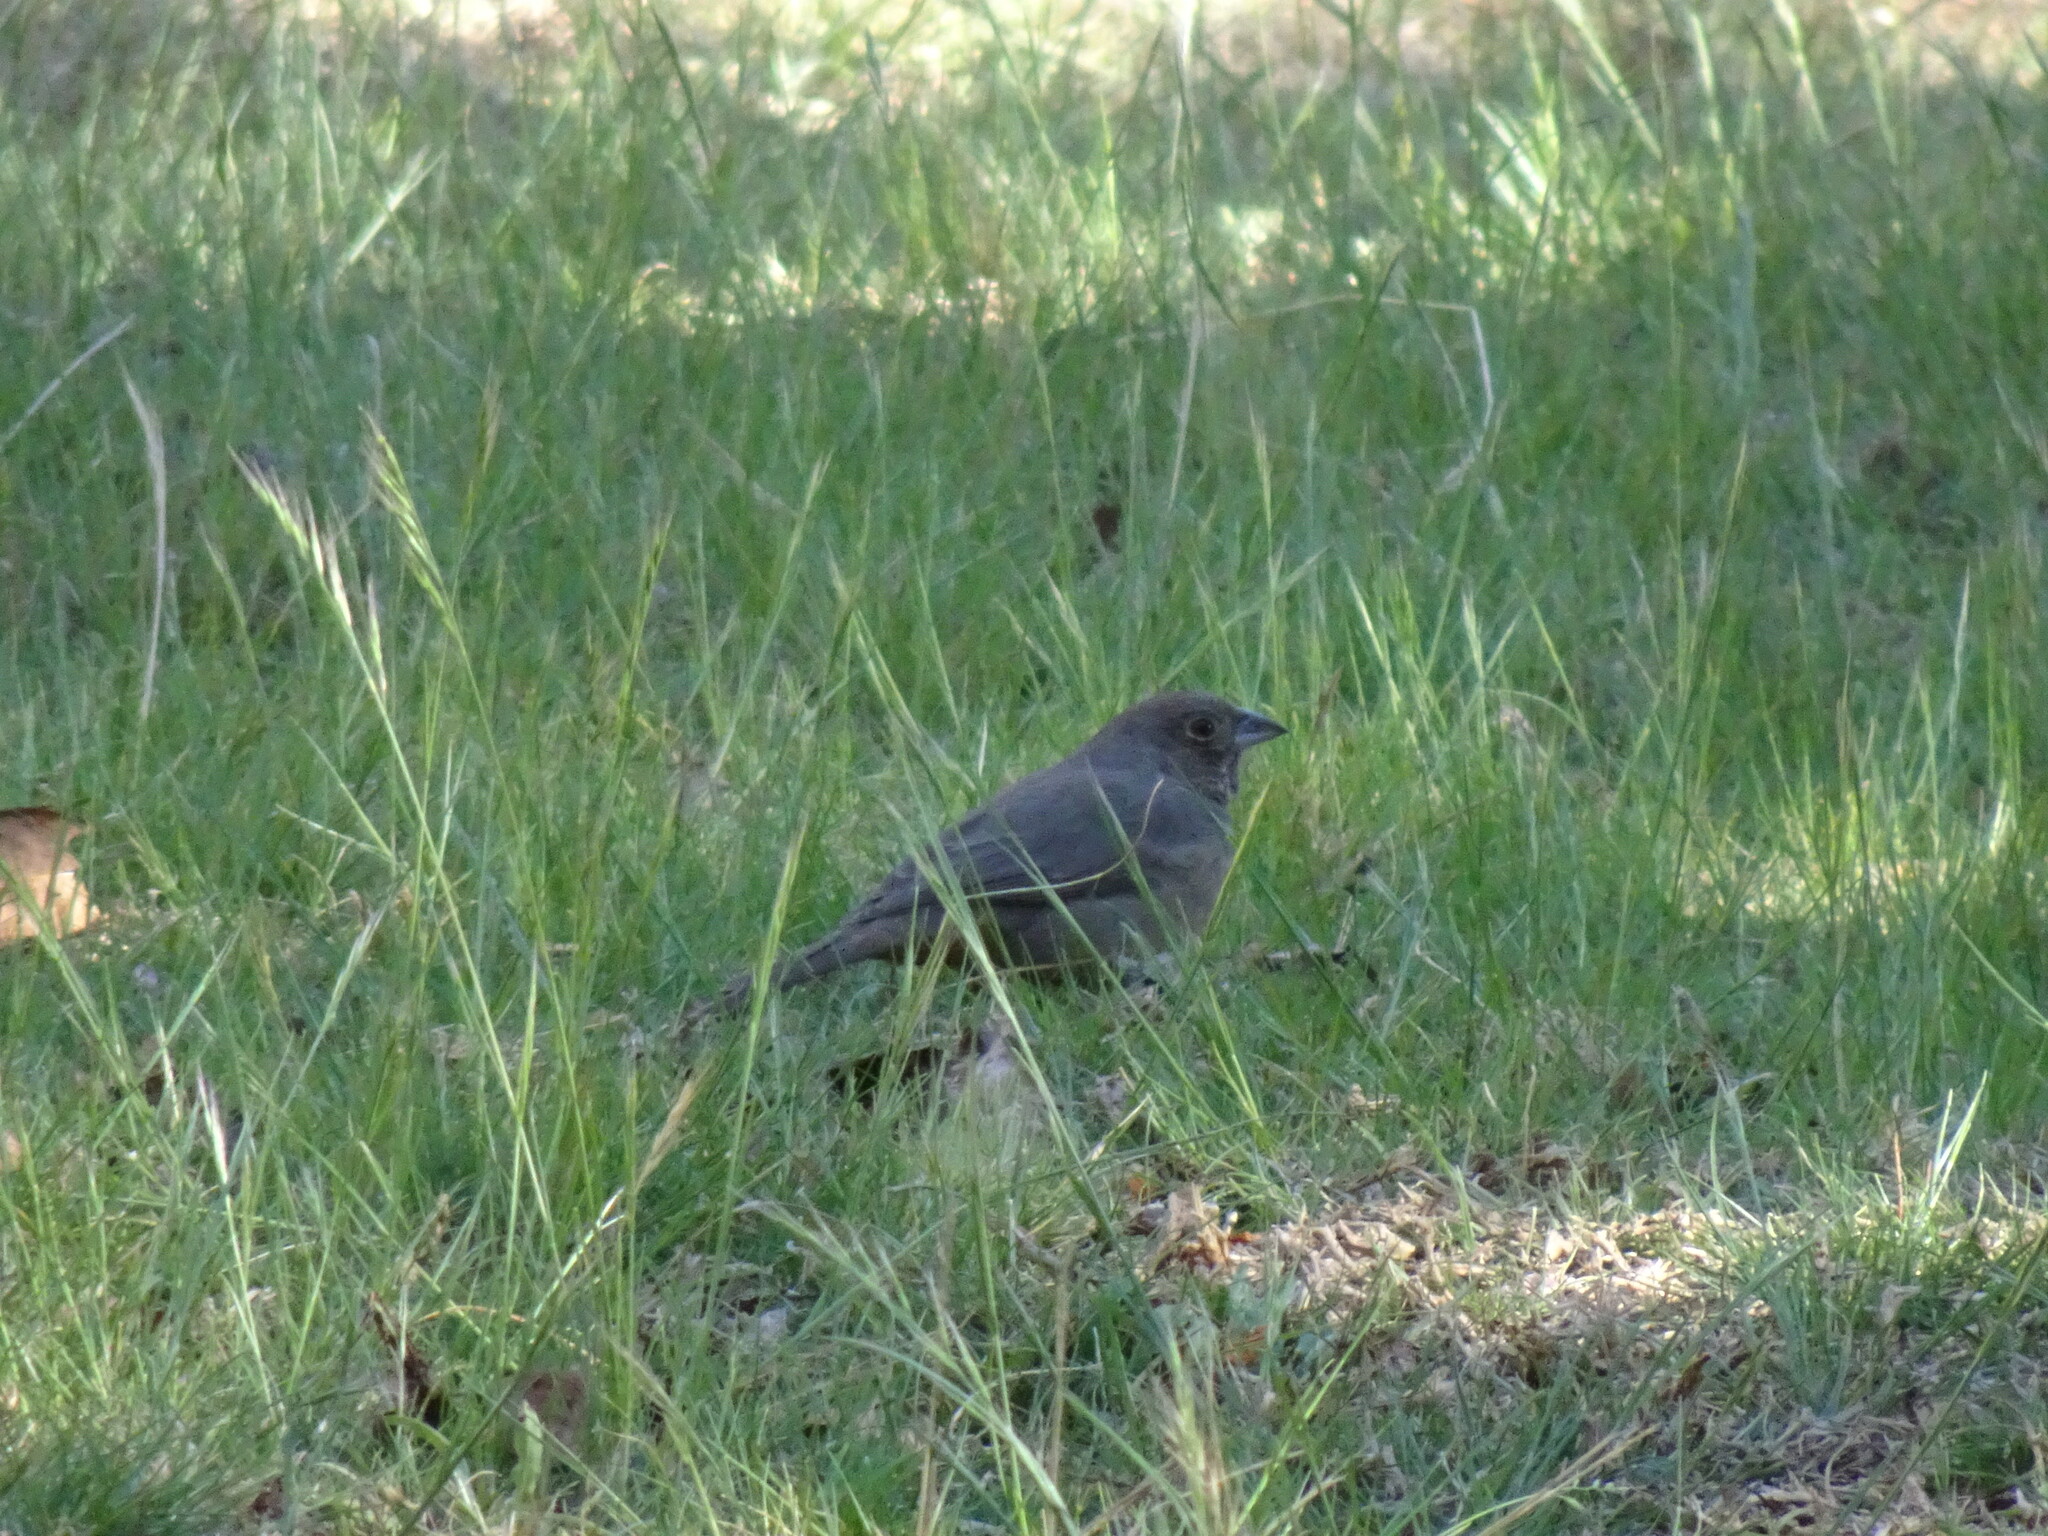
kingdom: Animalia
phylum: Chordata
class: Aves
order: Passeriformes
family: Passerellidae
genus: Melozone
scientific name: Melozone fusca
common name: Canyon towhee
